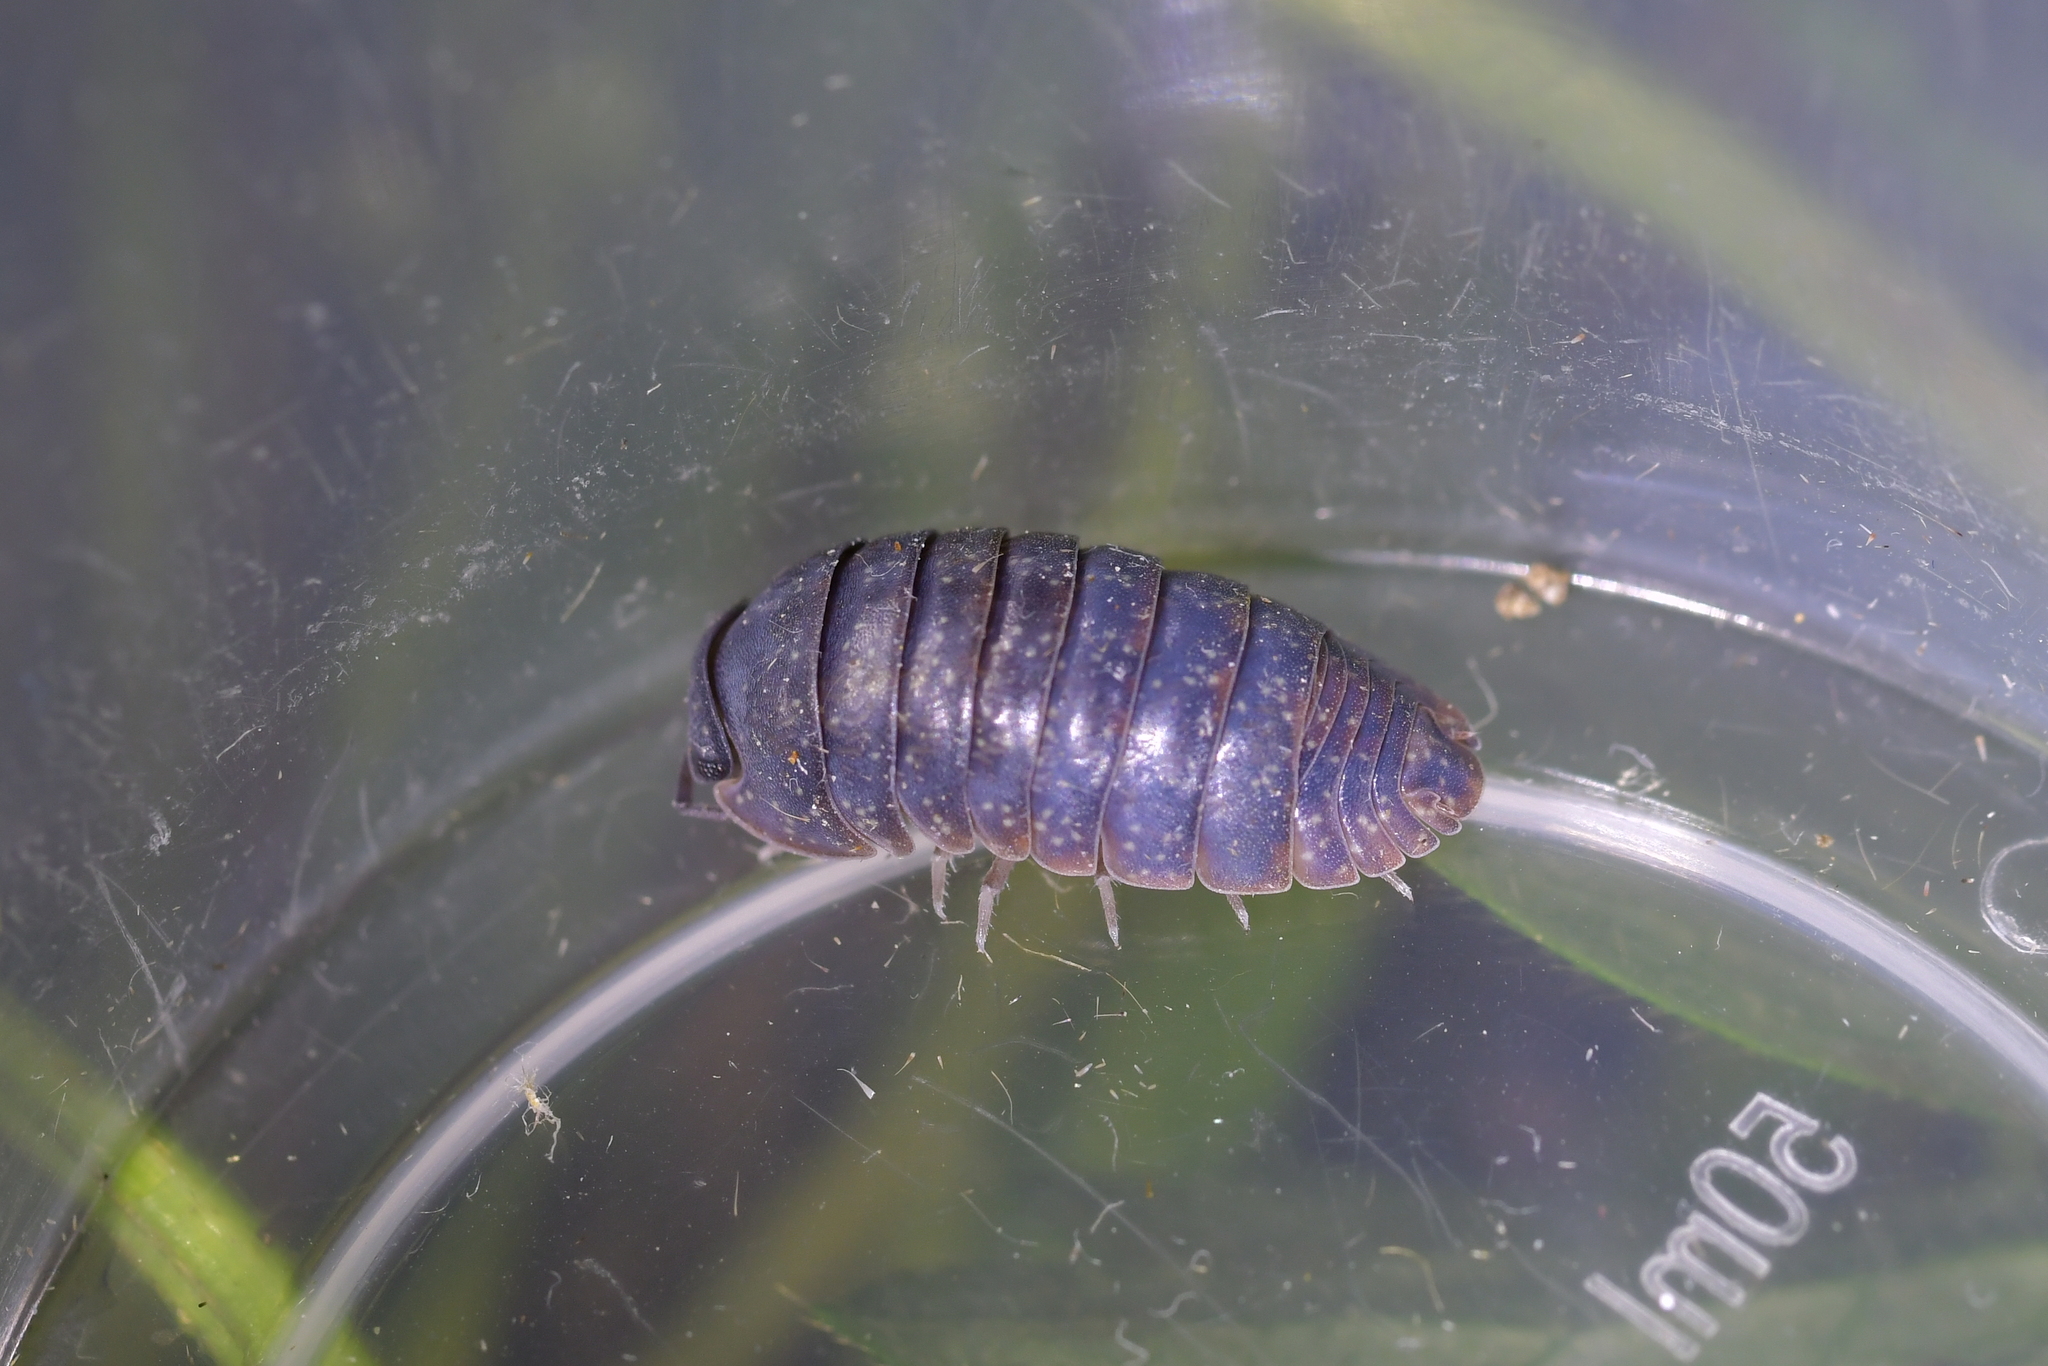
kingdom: Viruses
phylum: Nucleocytoviricota
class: Megaviricetes
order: Pimascovirales
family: Iridoviridae
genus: Iridovirus
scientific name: Iridovirus Invertebrate iridescent virus 31
